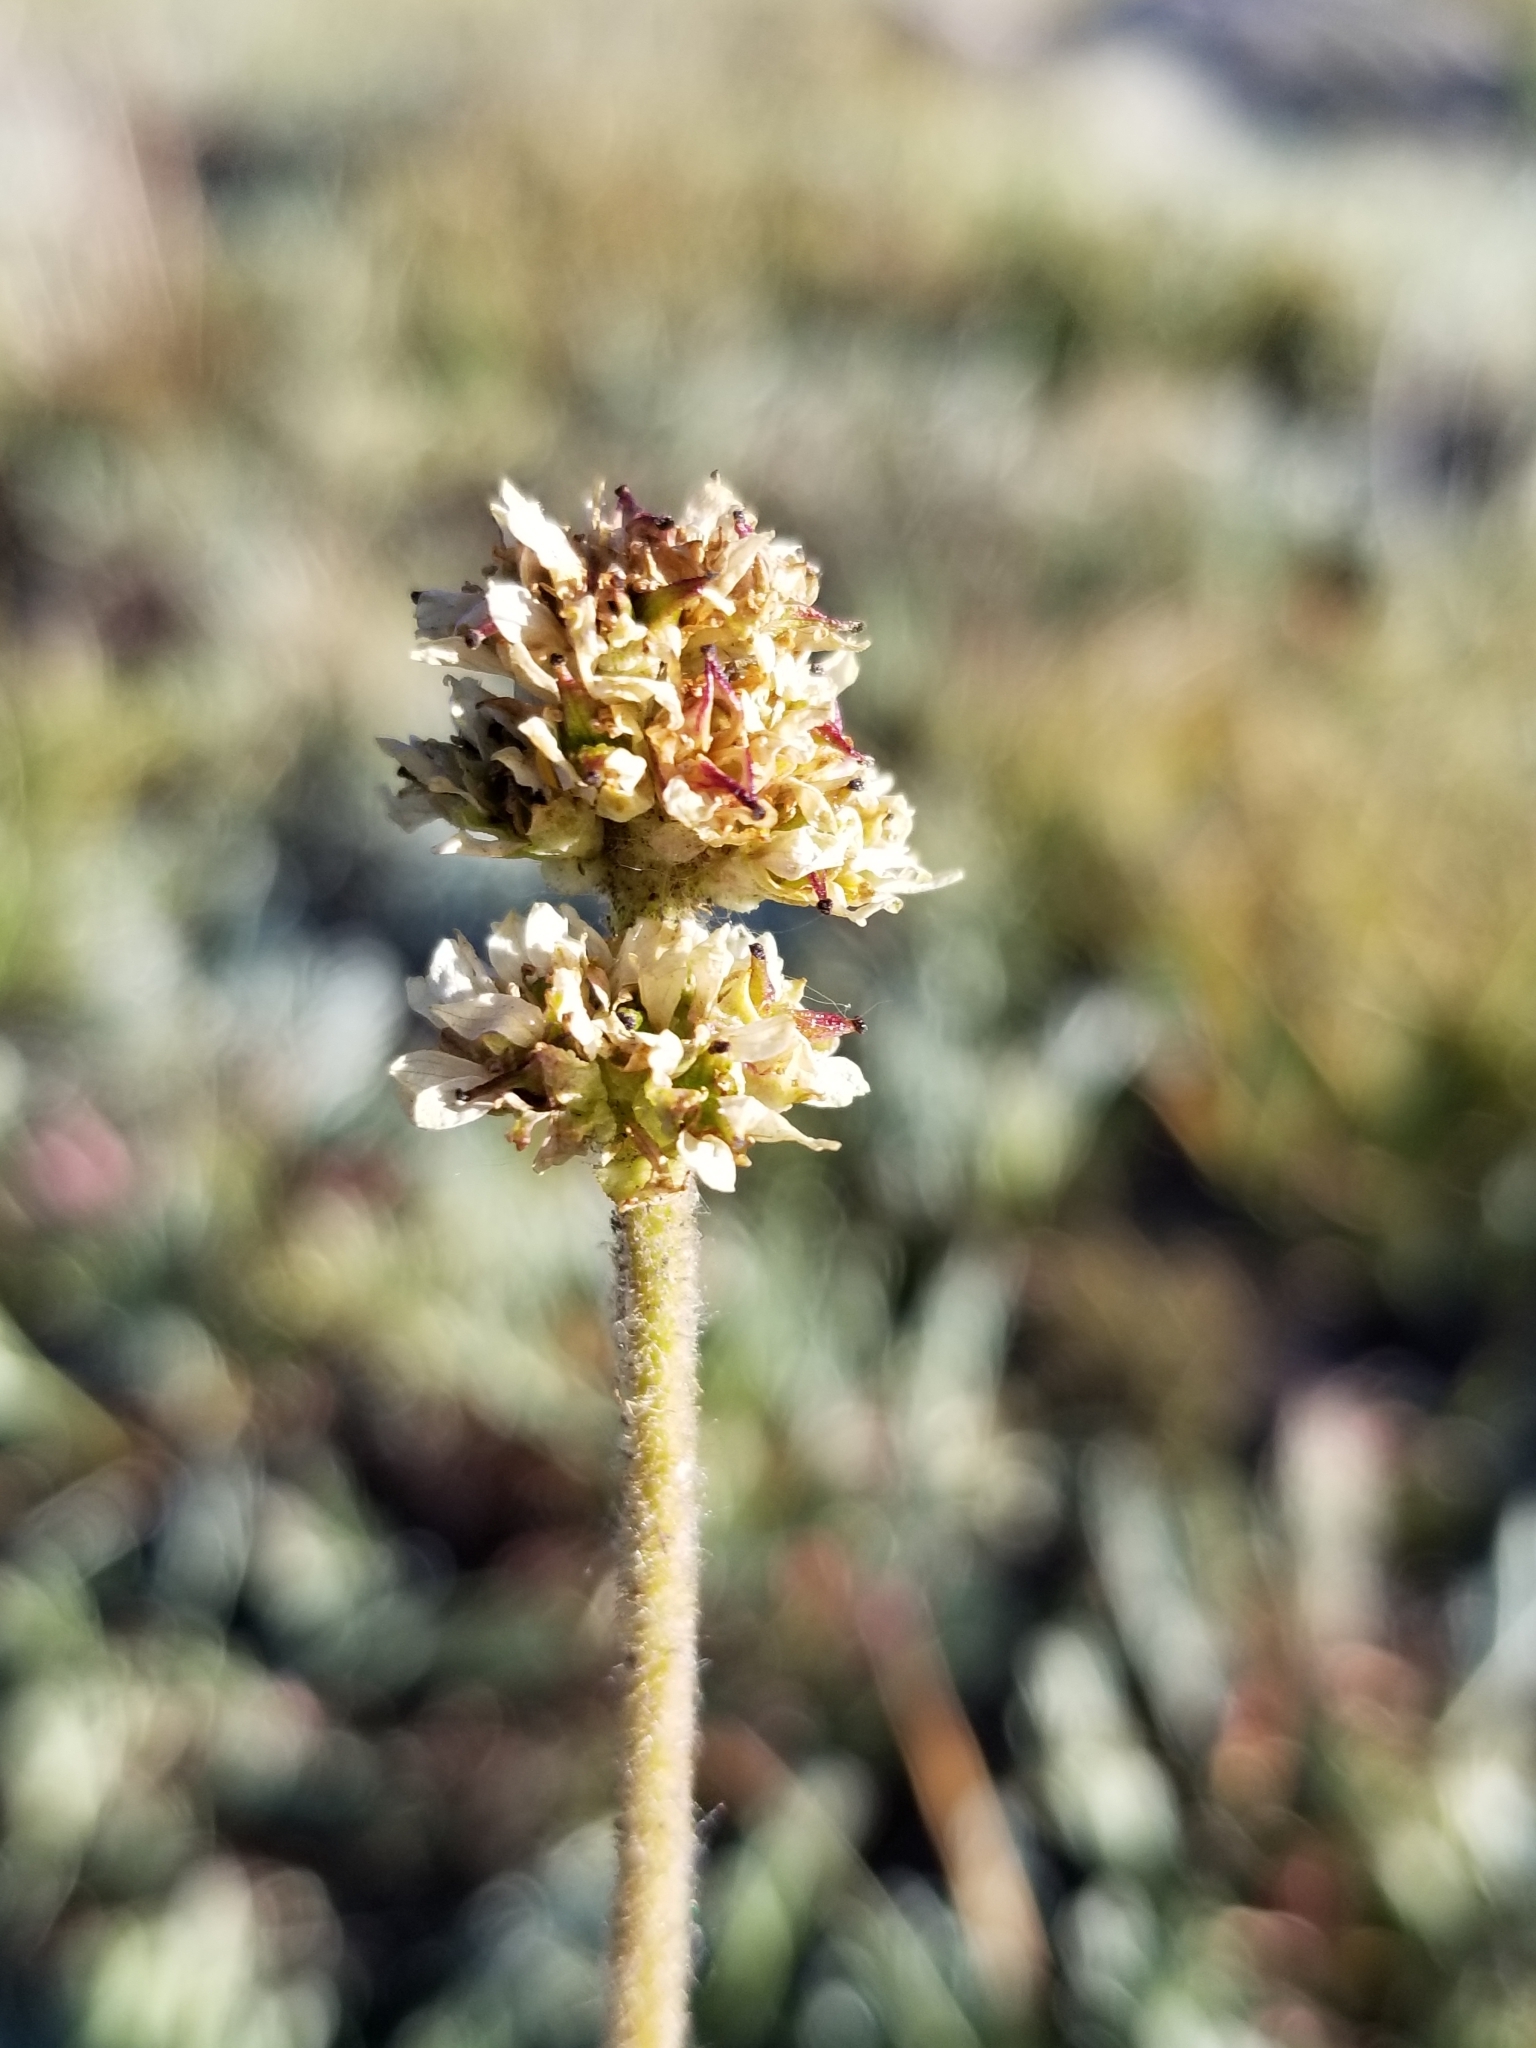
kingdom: Plantae
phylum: Tracheophyta
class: Magnoliopsida
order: Saxifragales
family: Saxifragaceae
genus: Micranthes
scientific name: Micranthes oregana
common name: Bog saxifrage
